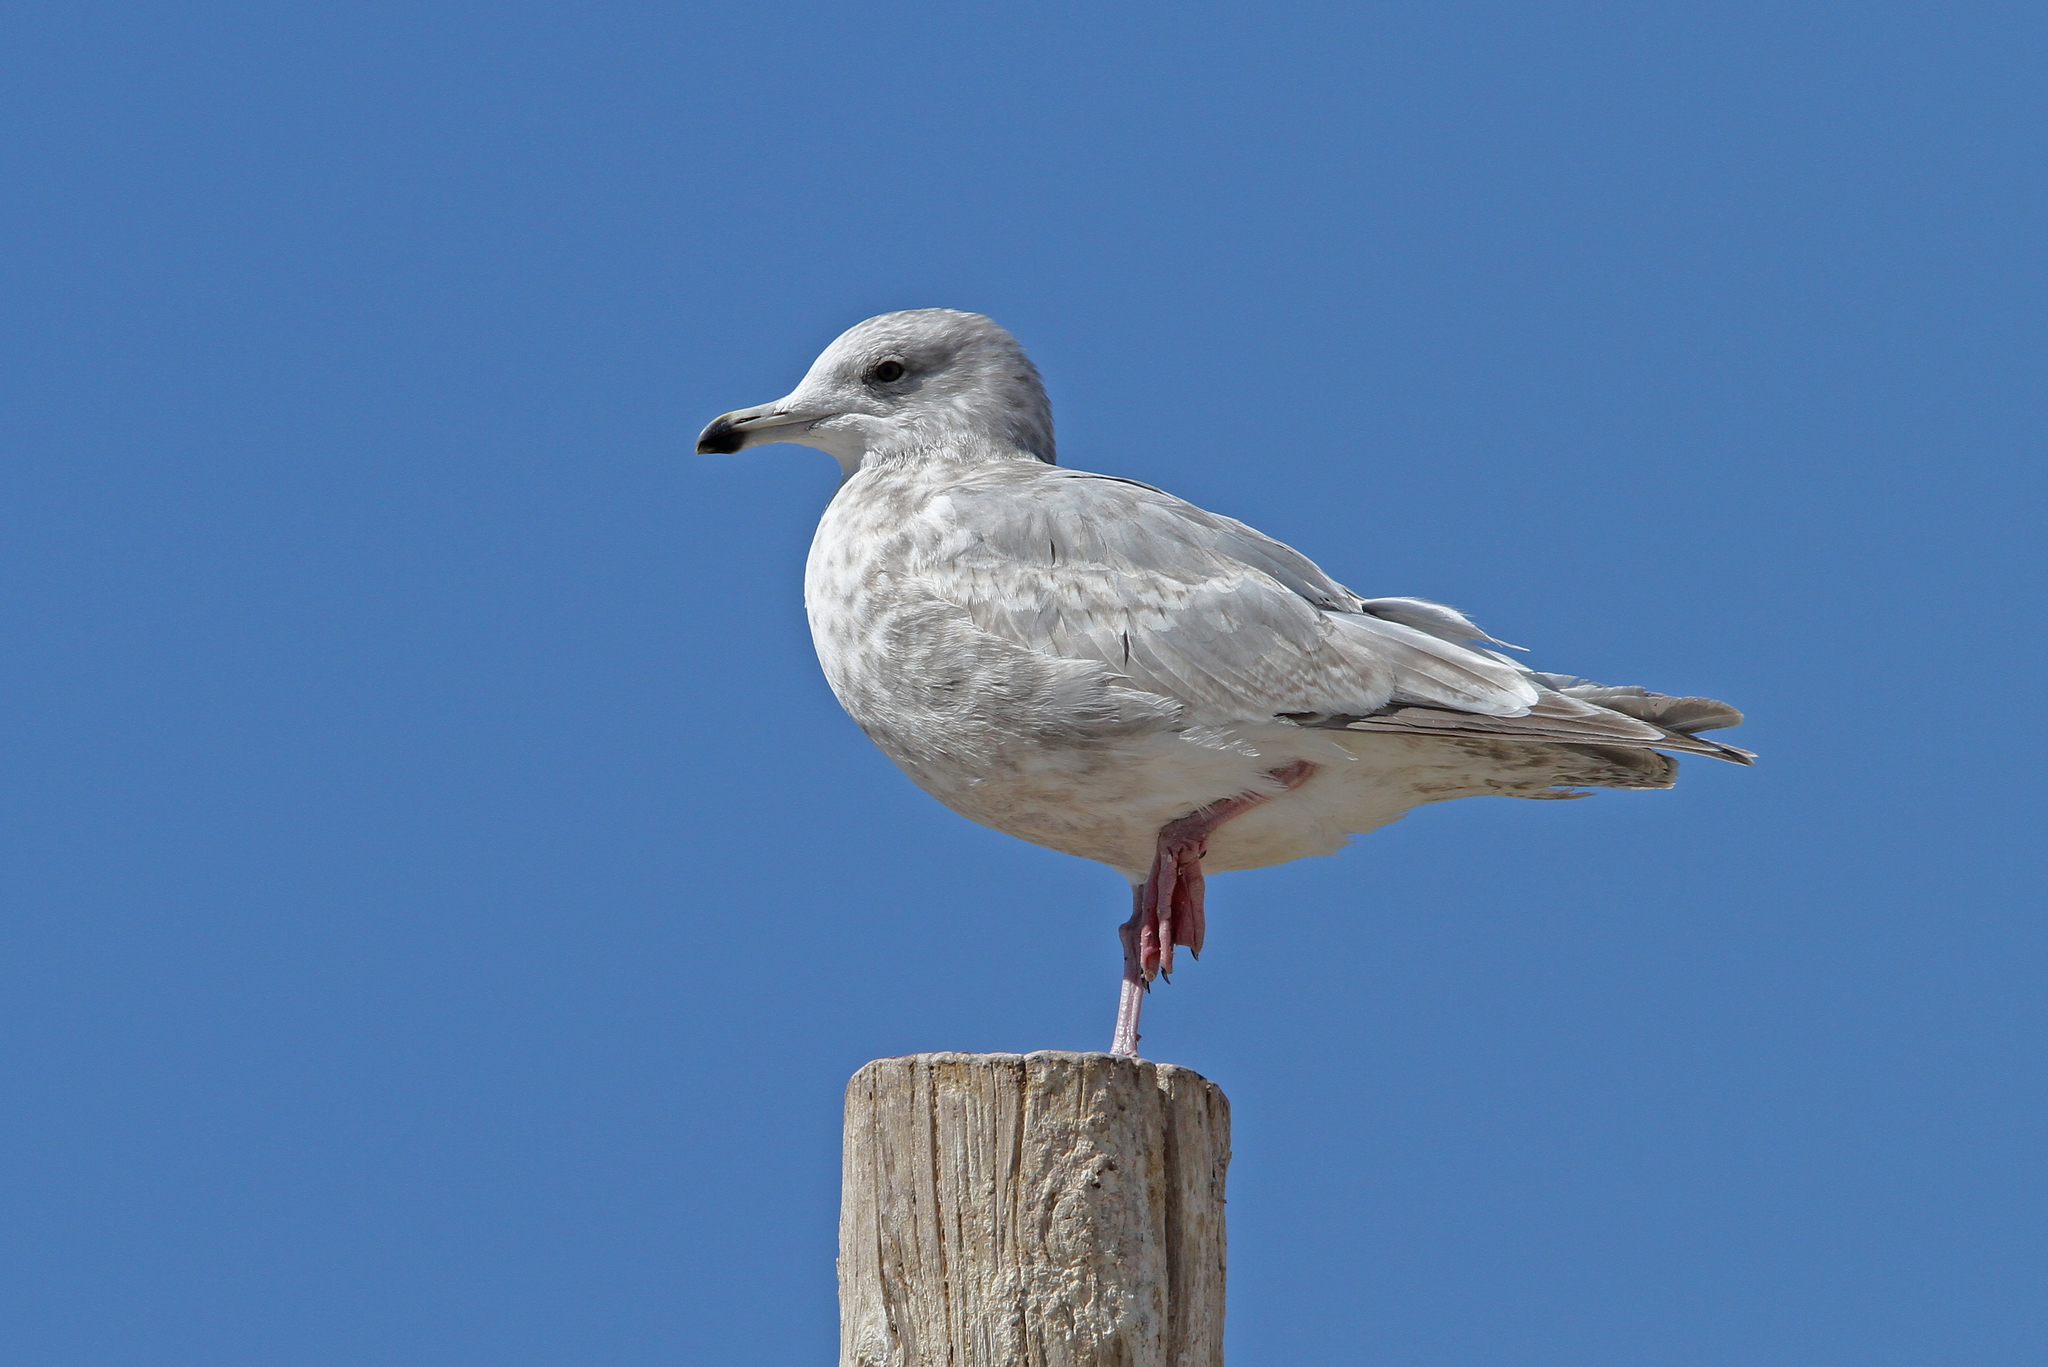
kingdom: Animalia
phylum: Chordata
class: Aves
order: Charadriiformes
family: Laridae
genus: Larus
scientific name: Larus glaucoides
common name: Iceland gull
